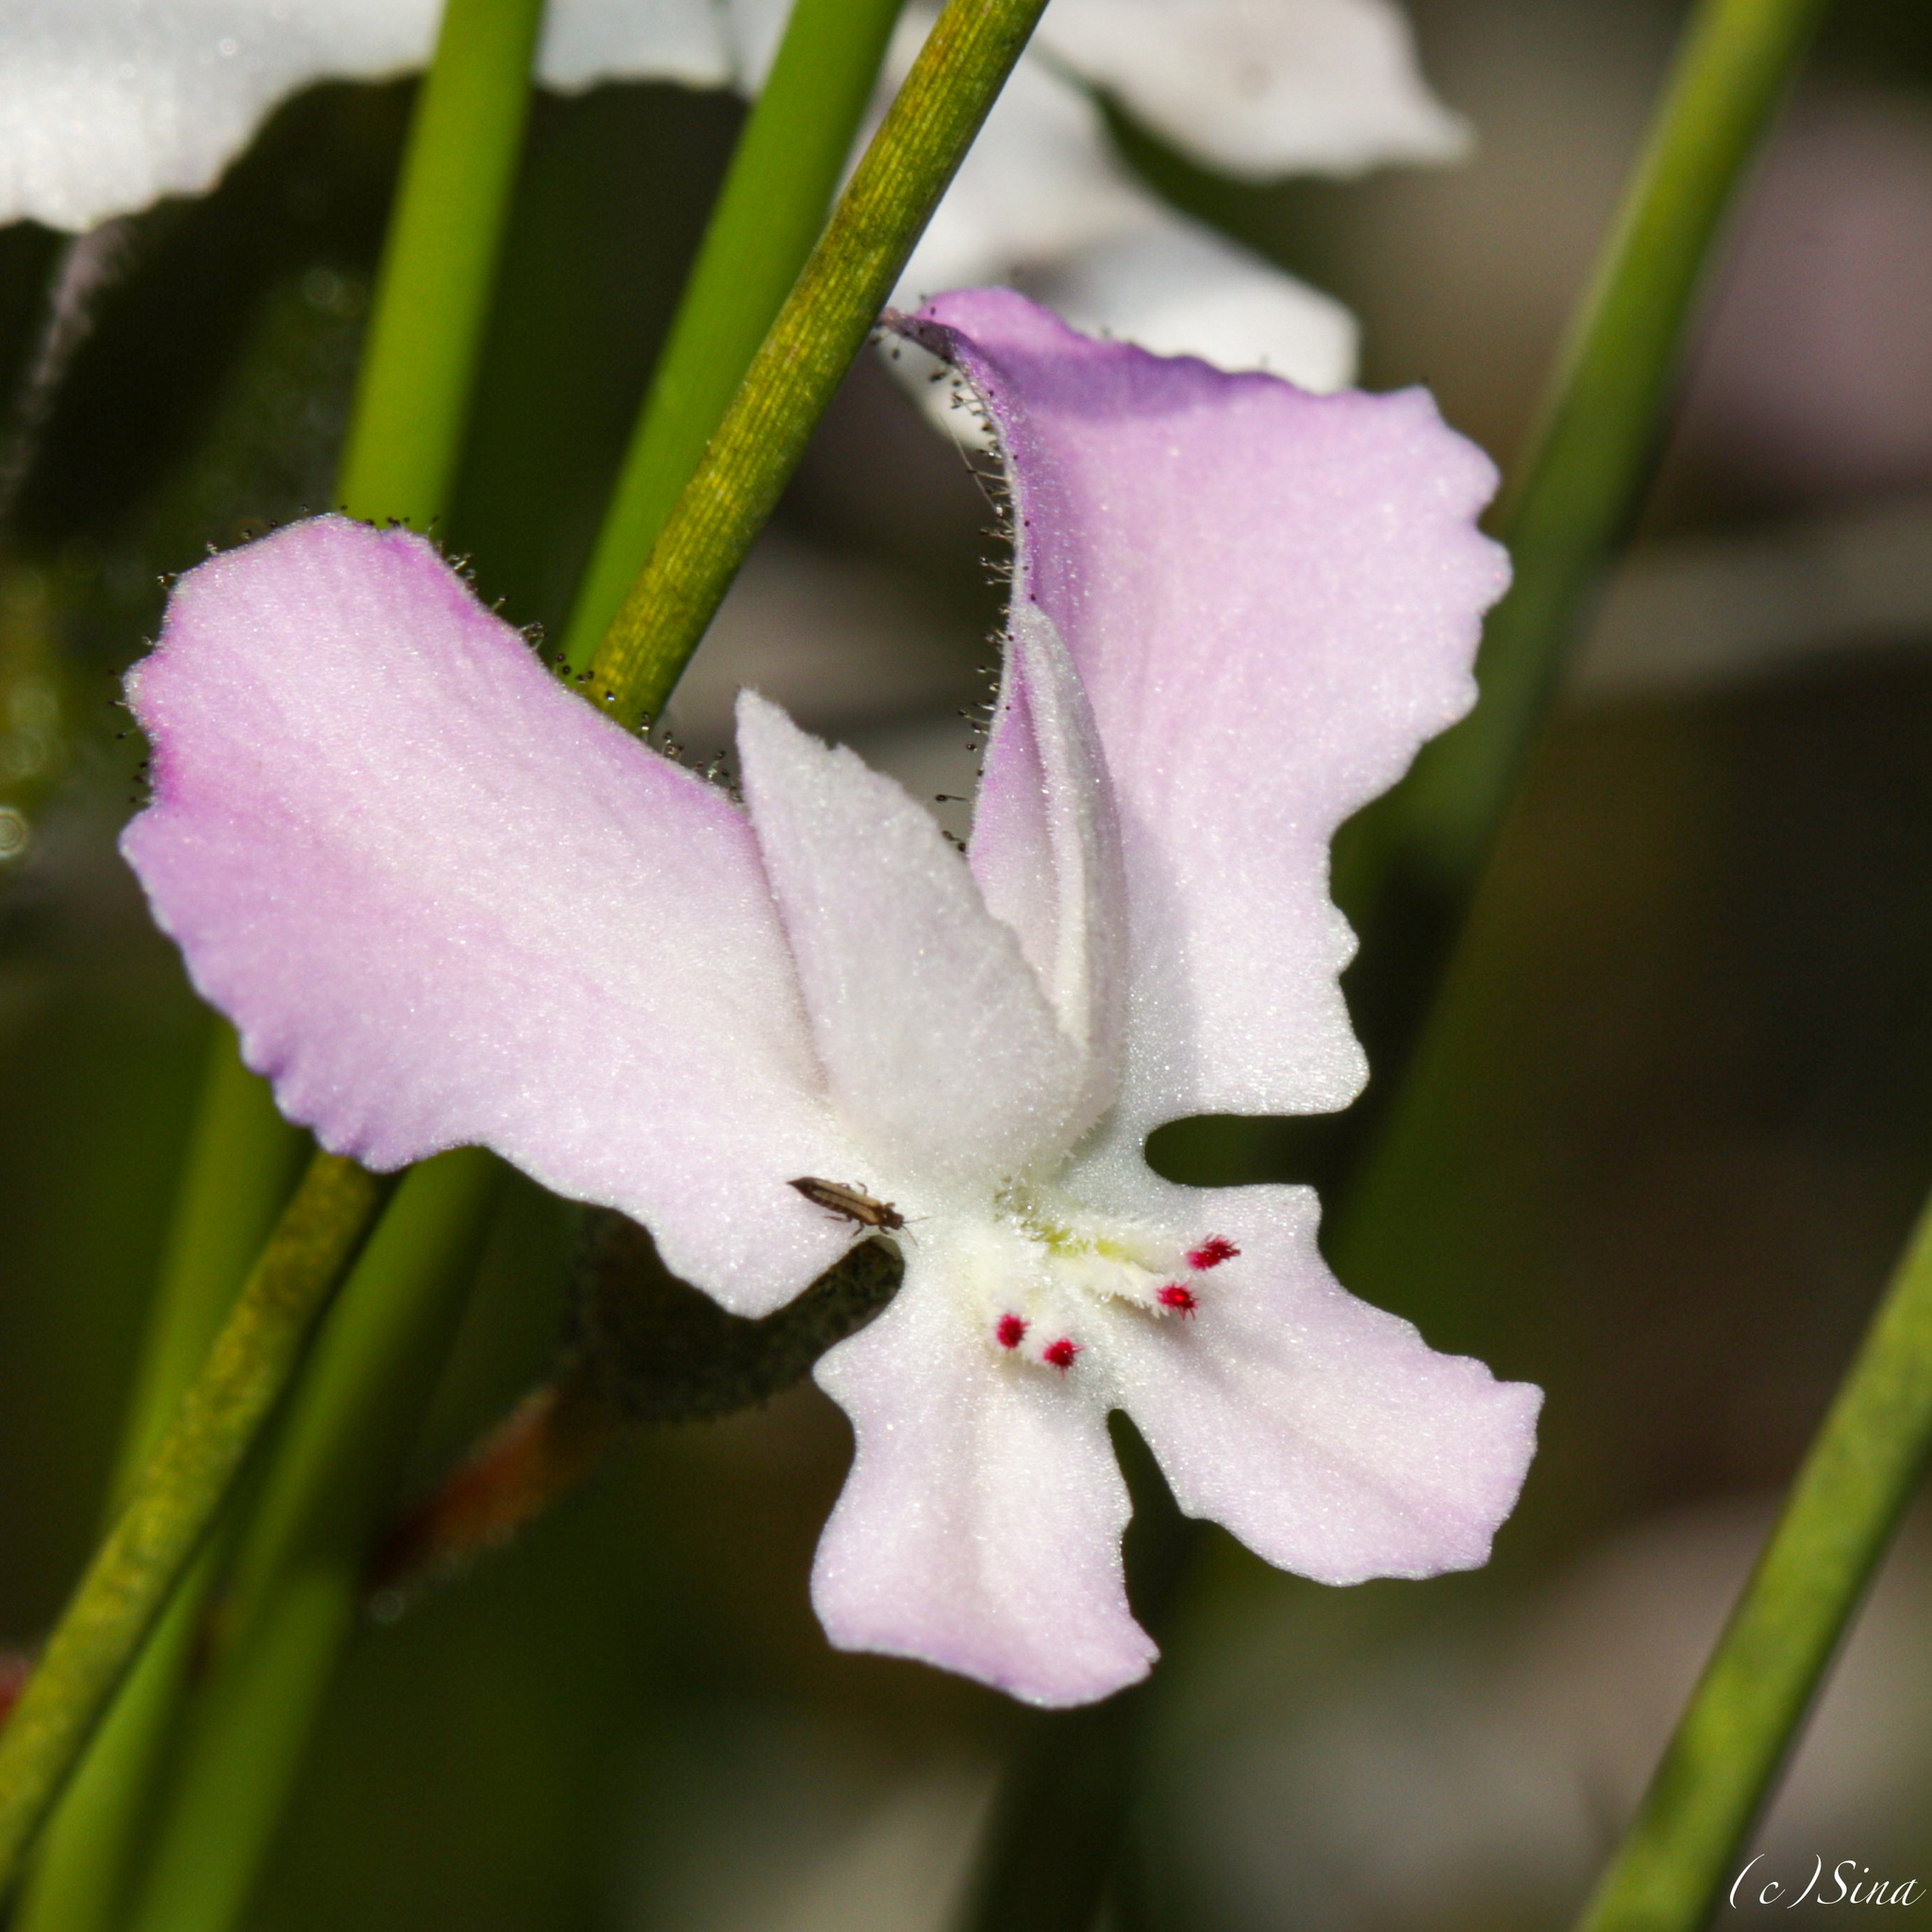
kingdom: Plantae
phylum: Tracheophyta
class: Magnoliopsida
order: Asterales
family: Stylidiaceae
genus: Stylidium
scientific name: Stylidium nungarinense
